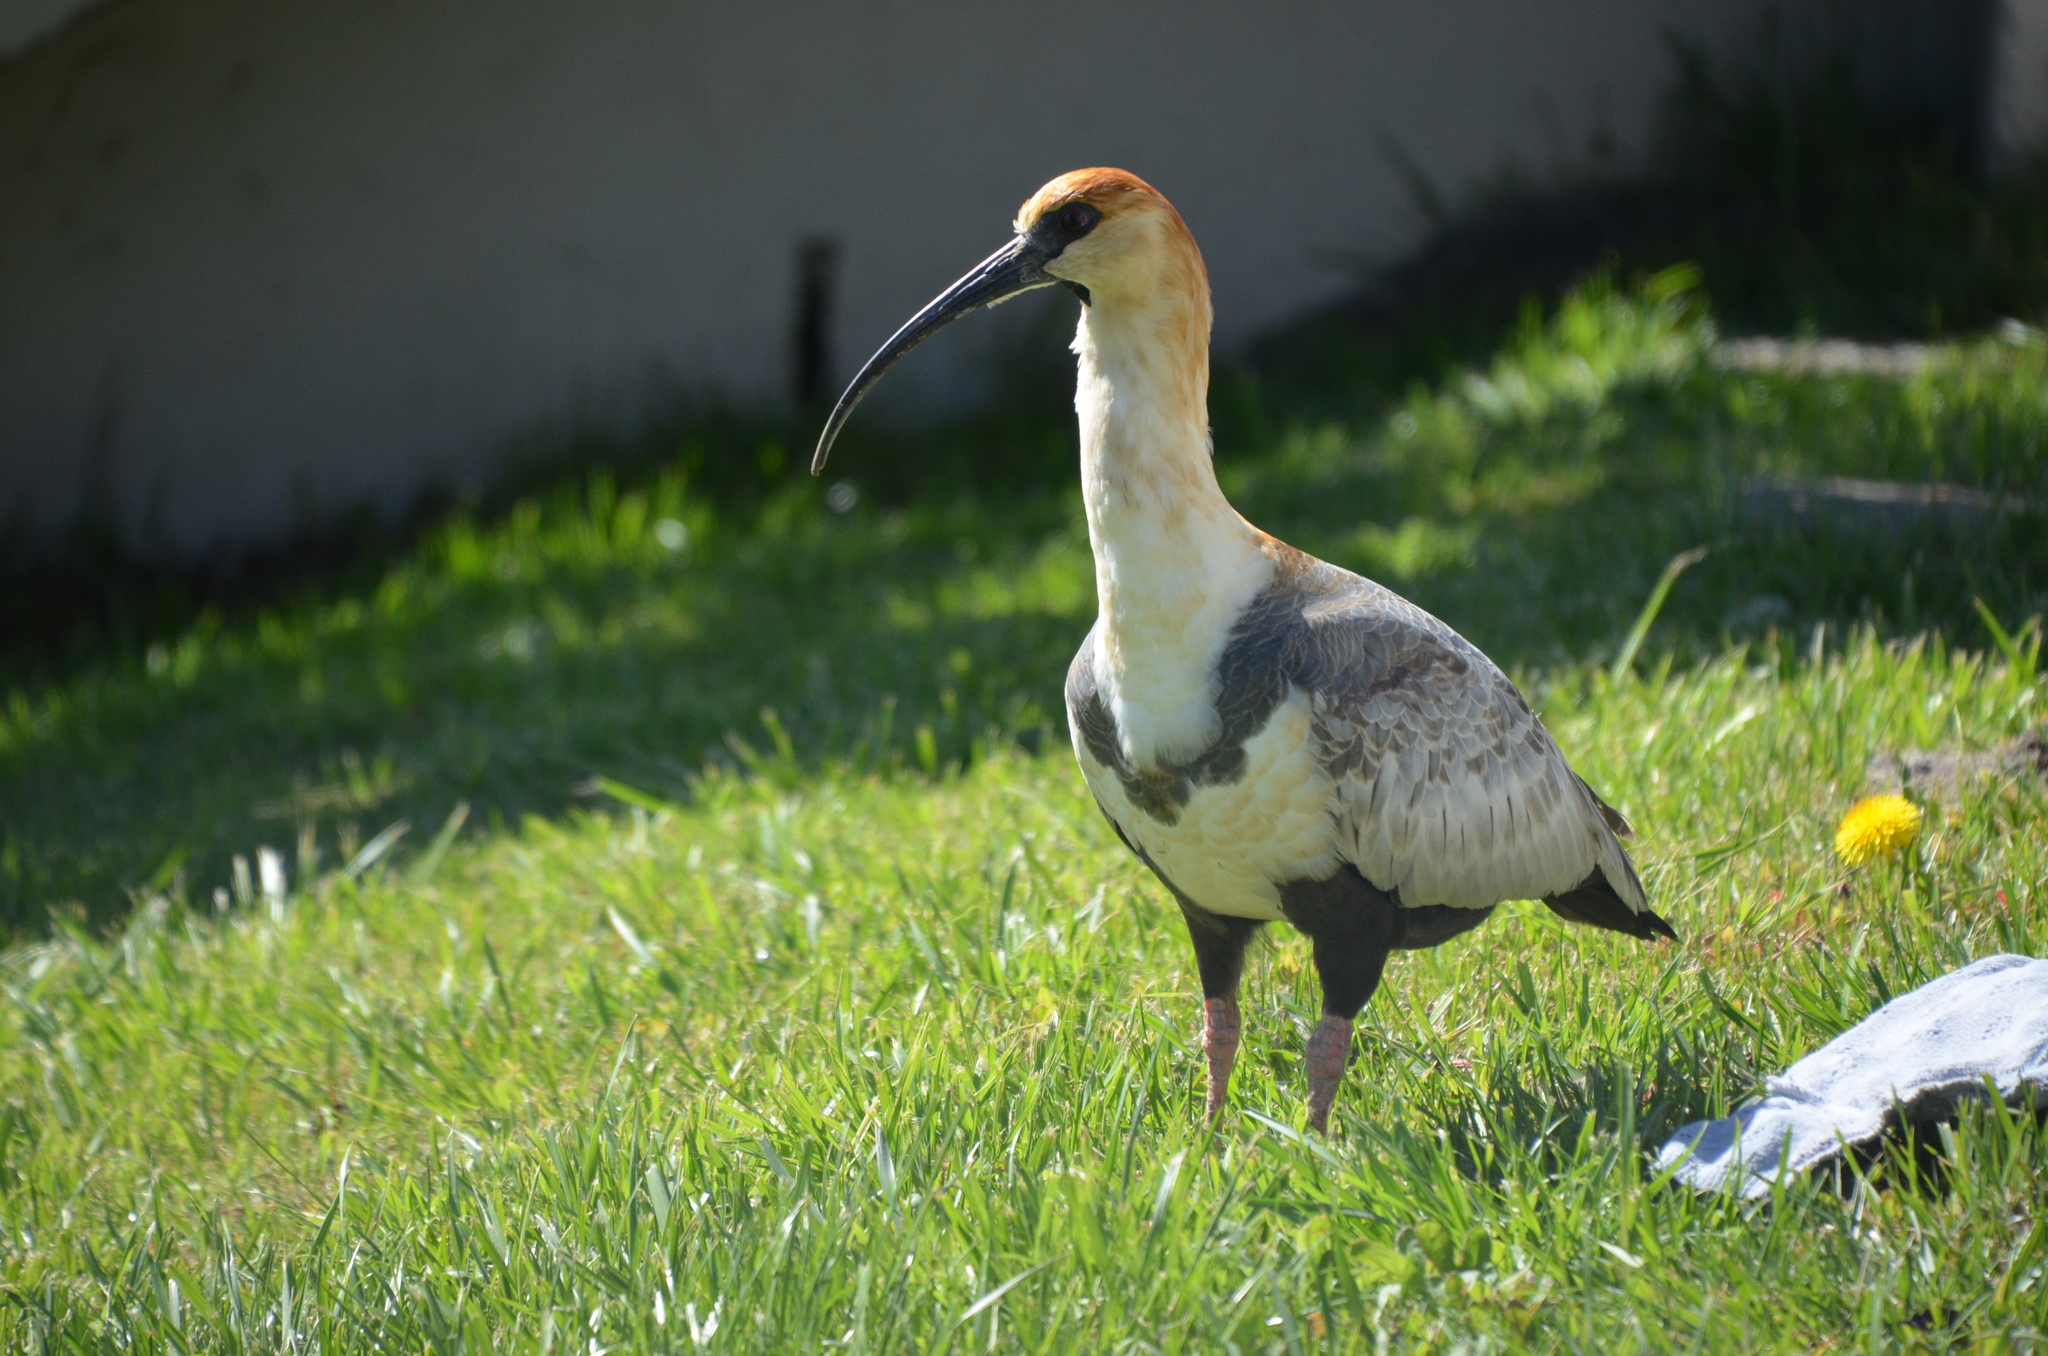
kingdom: Animalia
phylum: Chordata
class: Aves
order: Pelecaniformes
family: Threskiornithidae
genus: Theristicus
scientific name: Theristicus melanopis
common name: Black-faced ibis
